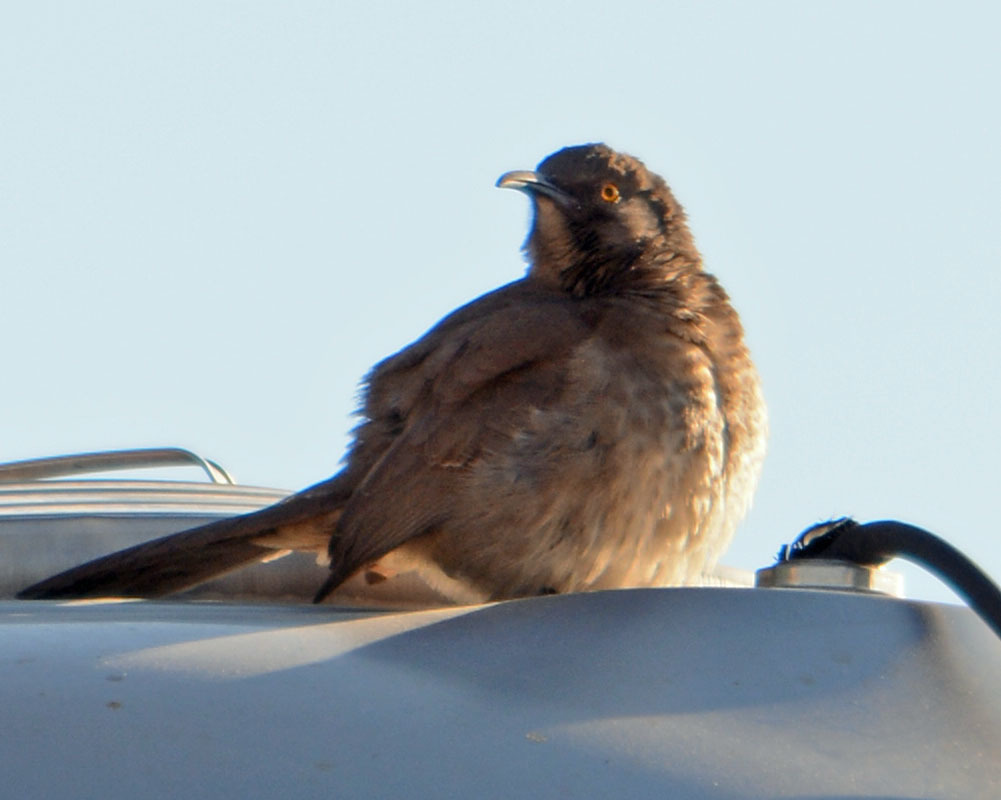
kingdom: Animalia
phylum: Chordata
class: Aves
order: Passeriformes
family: Mimidae
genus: Toxostoma
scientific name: Toxostoma curvirostre
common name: Curve-billed thrasher
